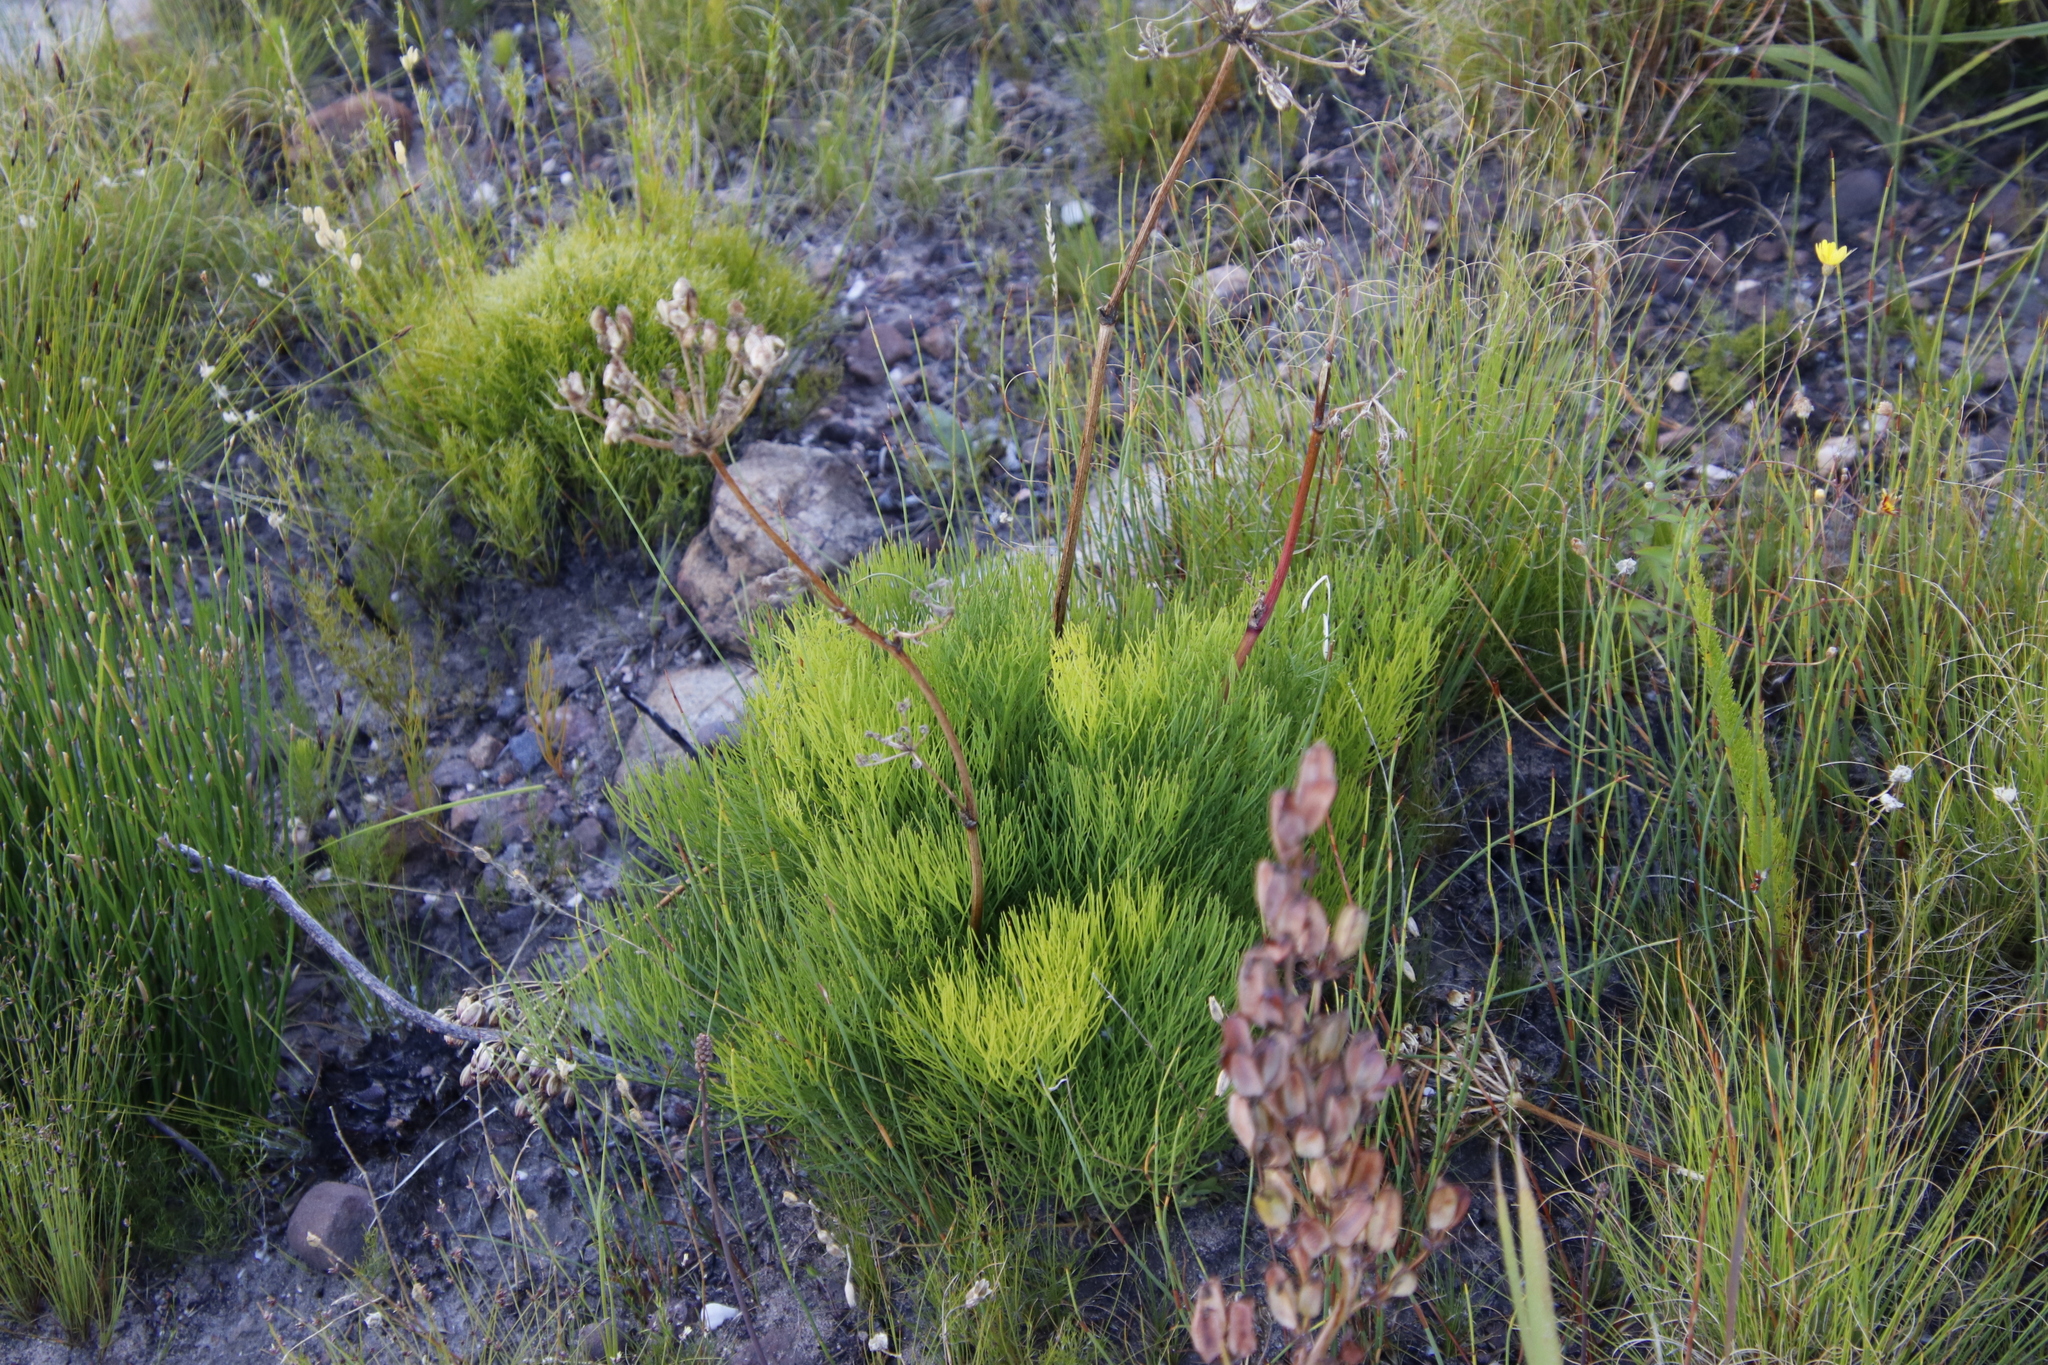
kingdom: Plantae
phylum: Tracheophyta
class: Magnoliopsida
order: Apiales
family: Apiaceae
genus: Nanobubon
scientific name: Nanobubon strictum
